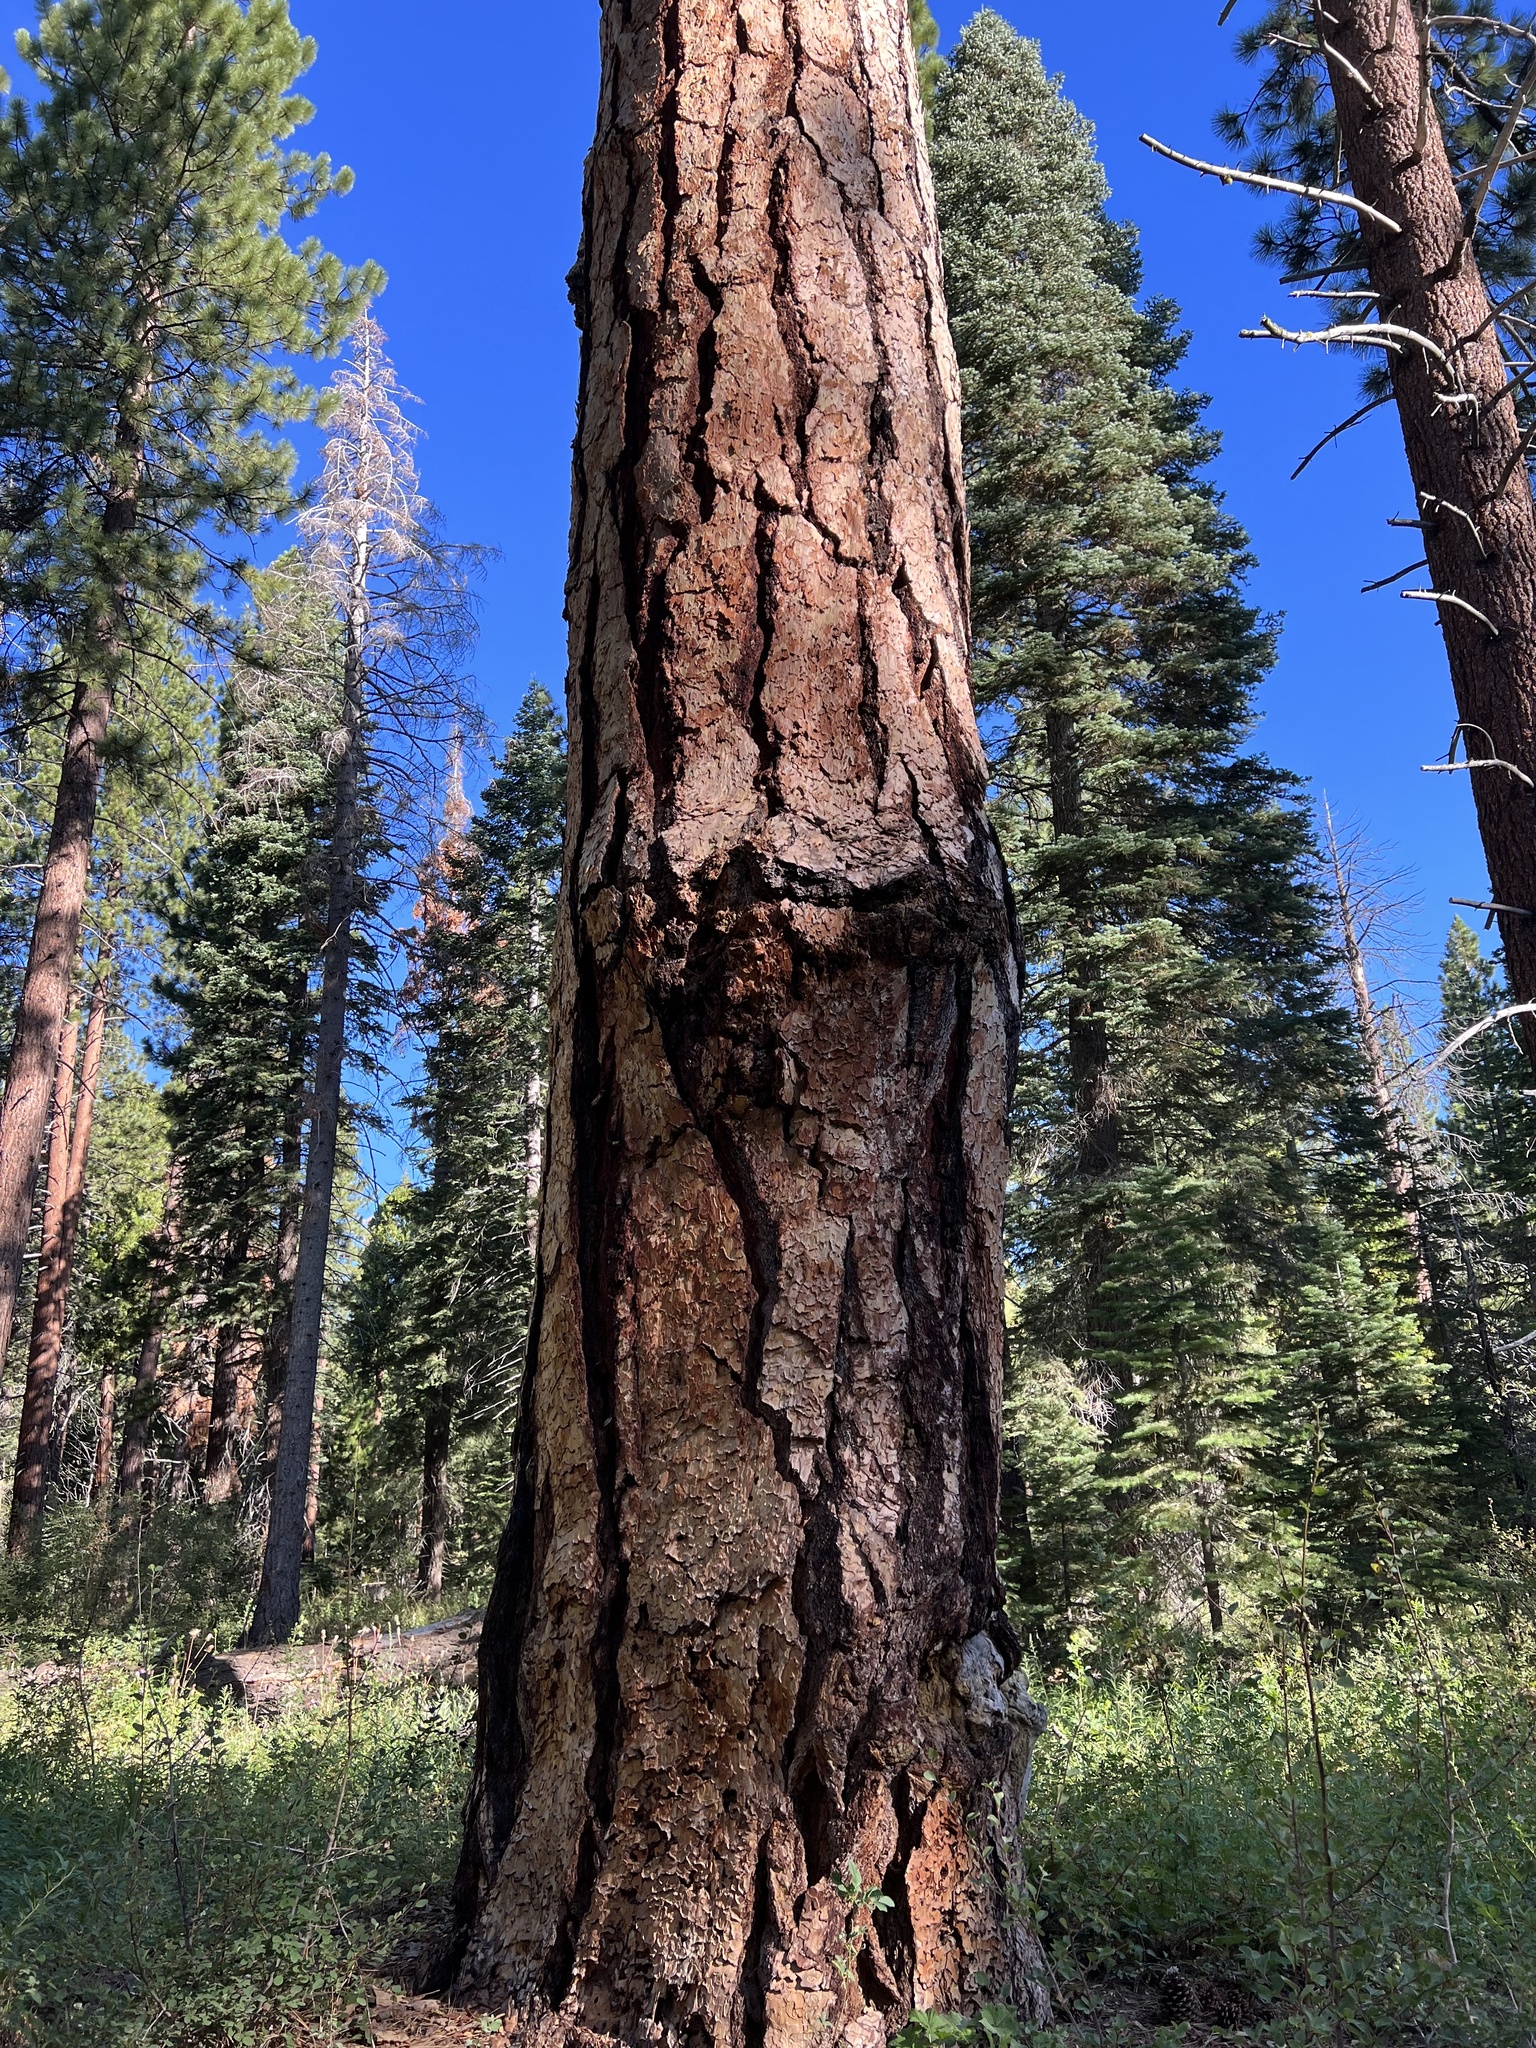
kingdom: Plantae
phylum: Tracheophyta
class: Pinopsida
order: Pinales
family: Pinaceae
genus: Pinus
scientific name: Pinus ponderosa
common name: Western yellow-pine
